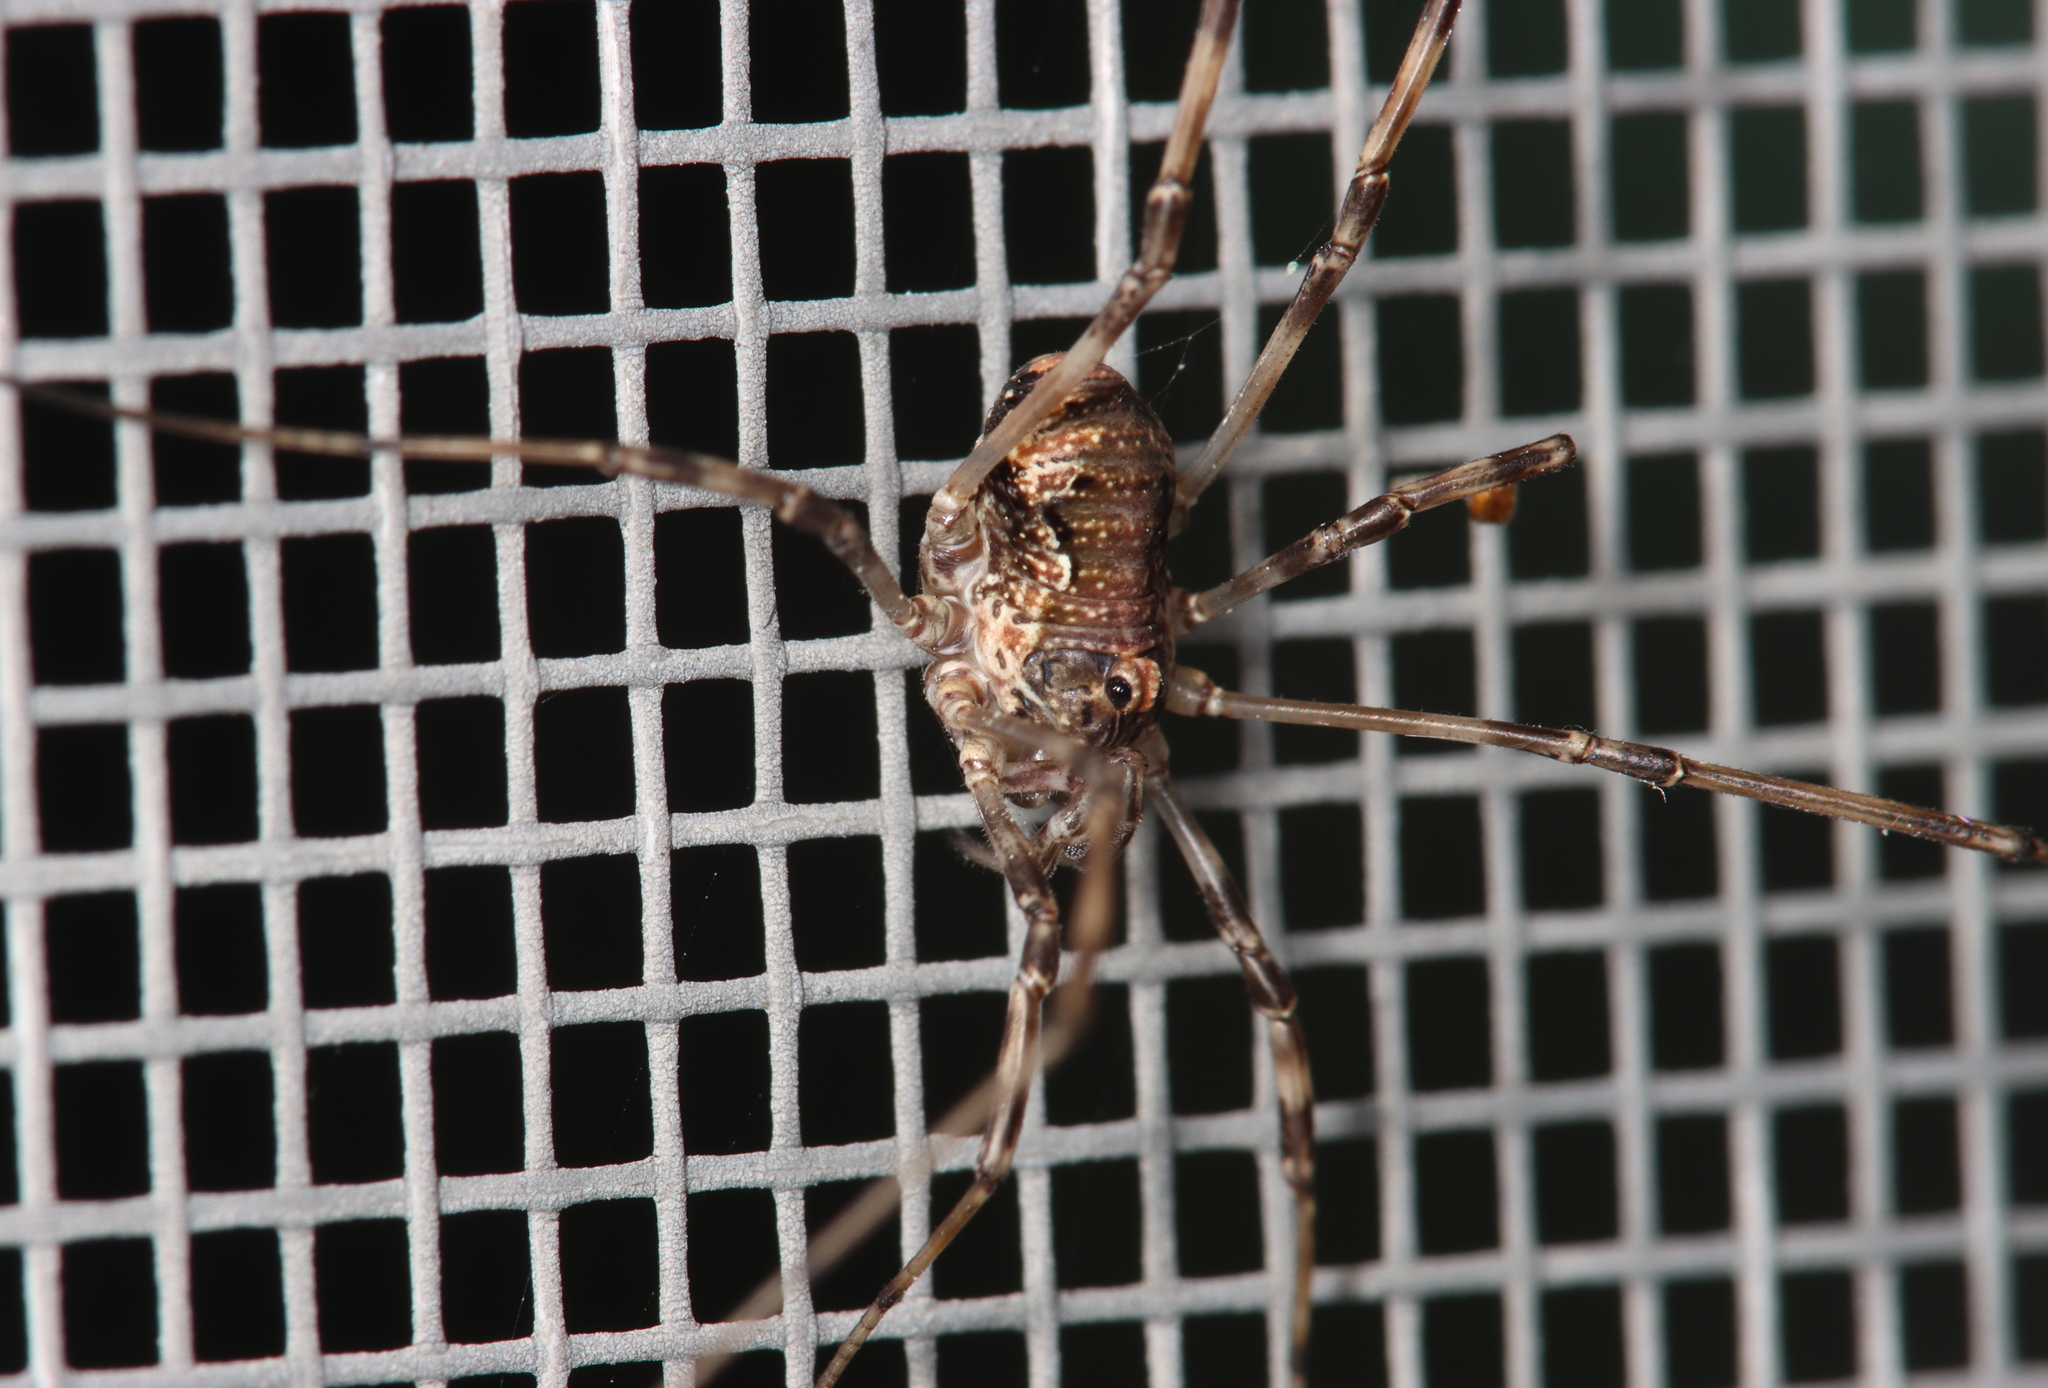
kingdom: Animalia
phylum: Arthropoda
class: Arachnida
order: Opiliones
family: Phalangiidae
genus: Dasylobus
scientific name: Dasylobus graniferus
